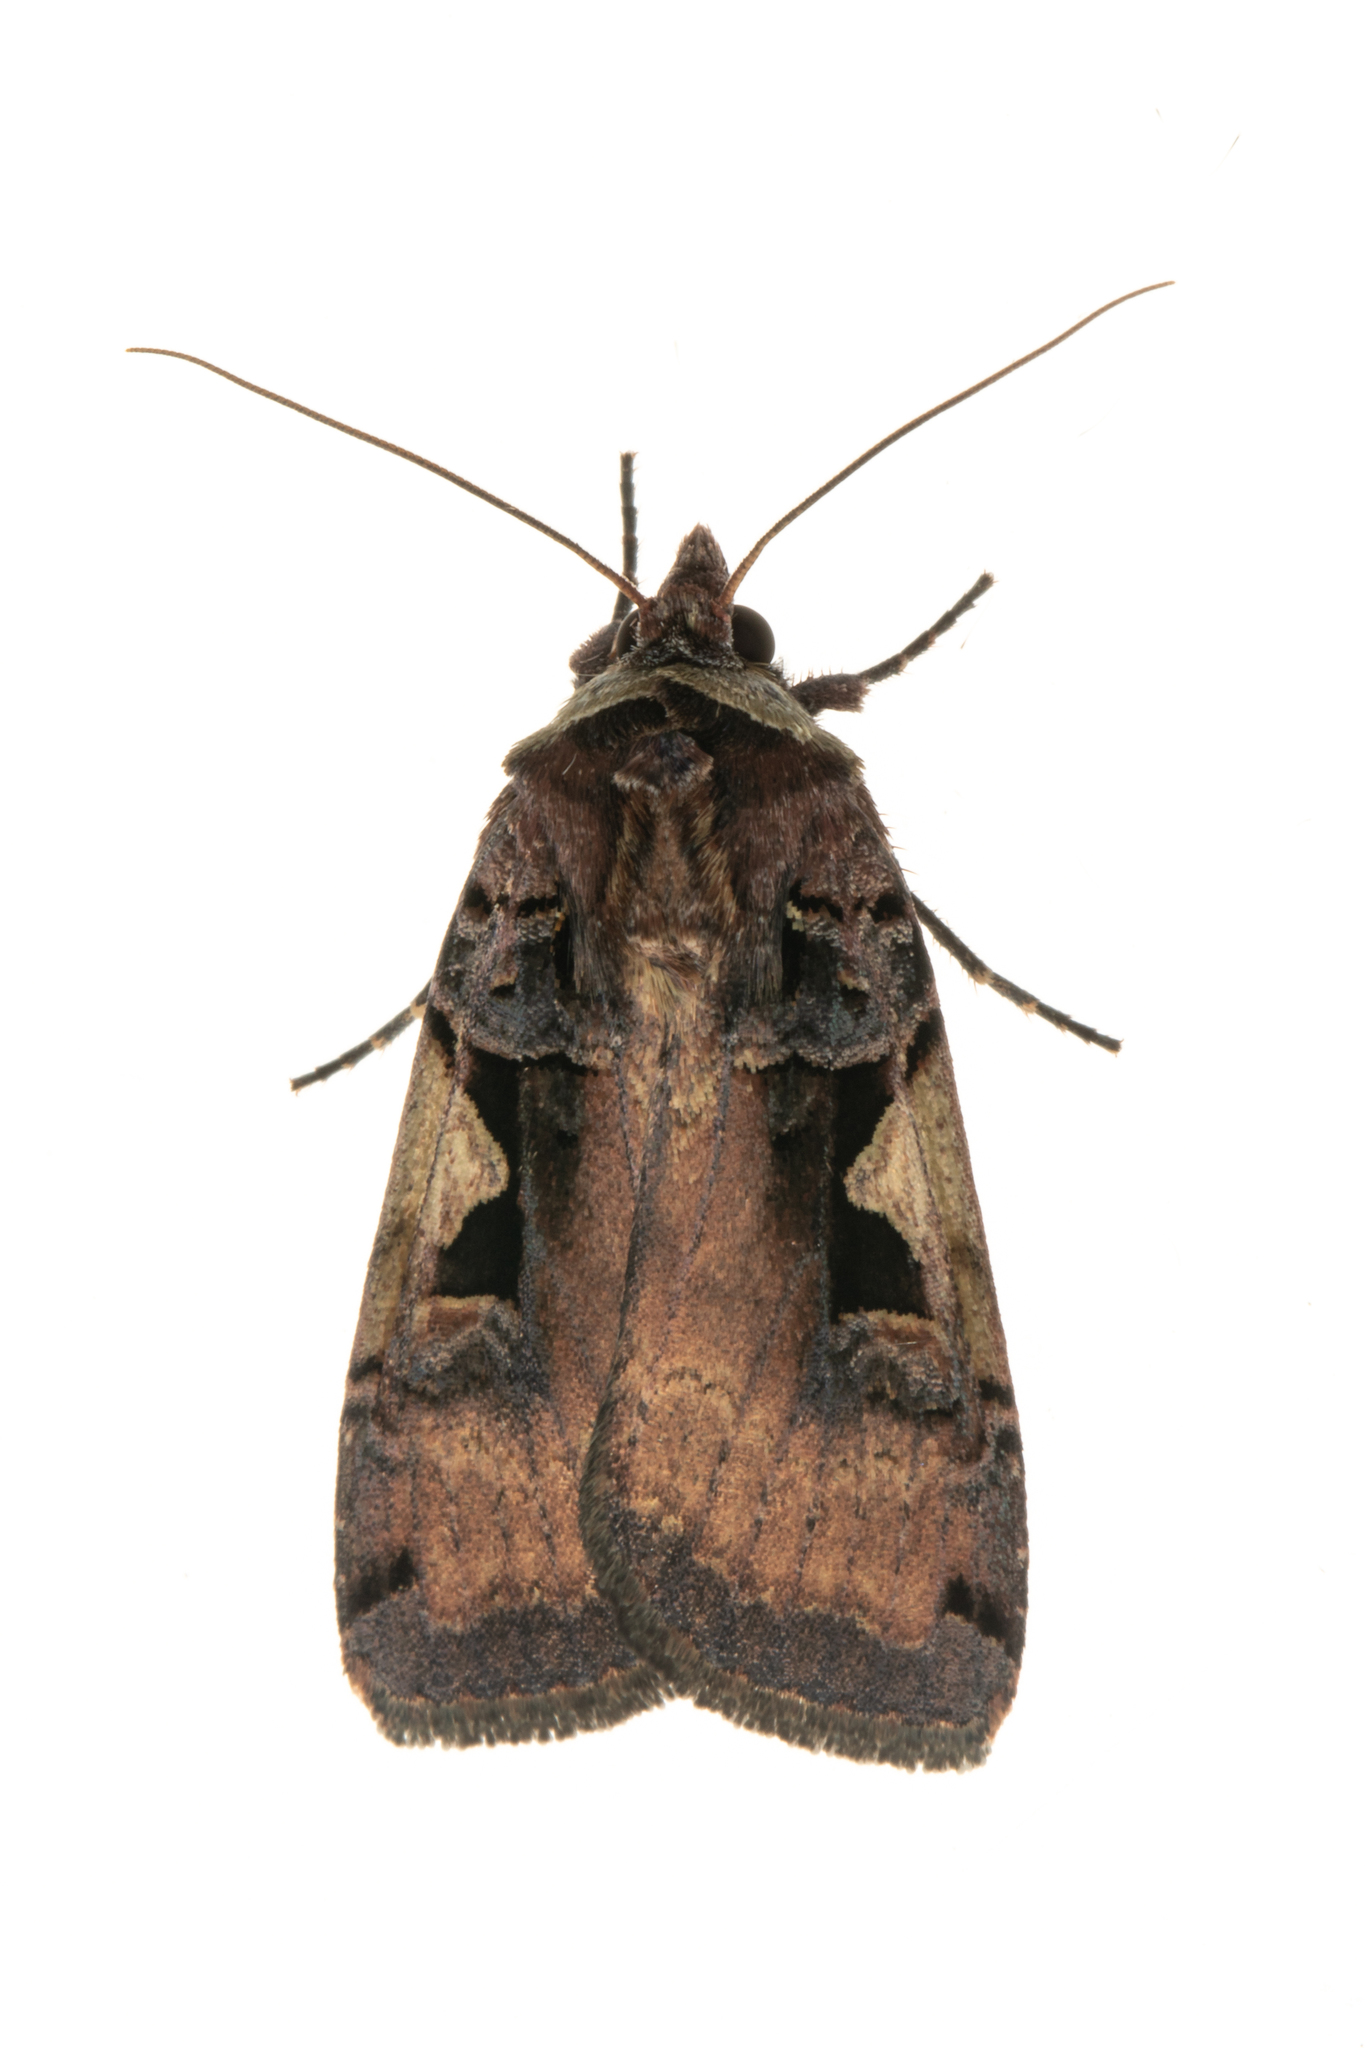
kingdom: Animalia
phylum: Arthropoda
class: Insecta
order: Lepidoptera
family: Noctuidae
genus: Xestia
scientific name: Xestia c-nigrum
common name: Setaceous hebrew character
